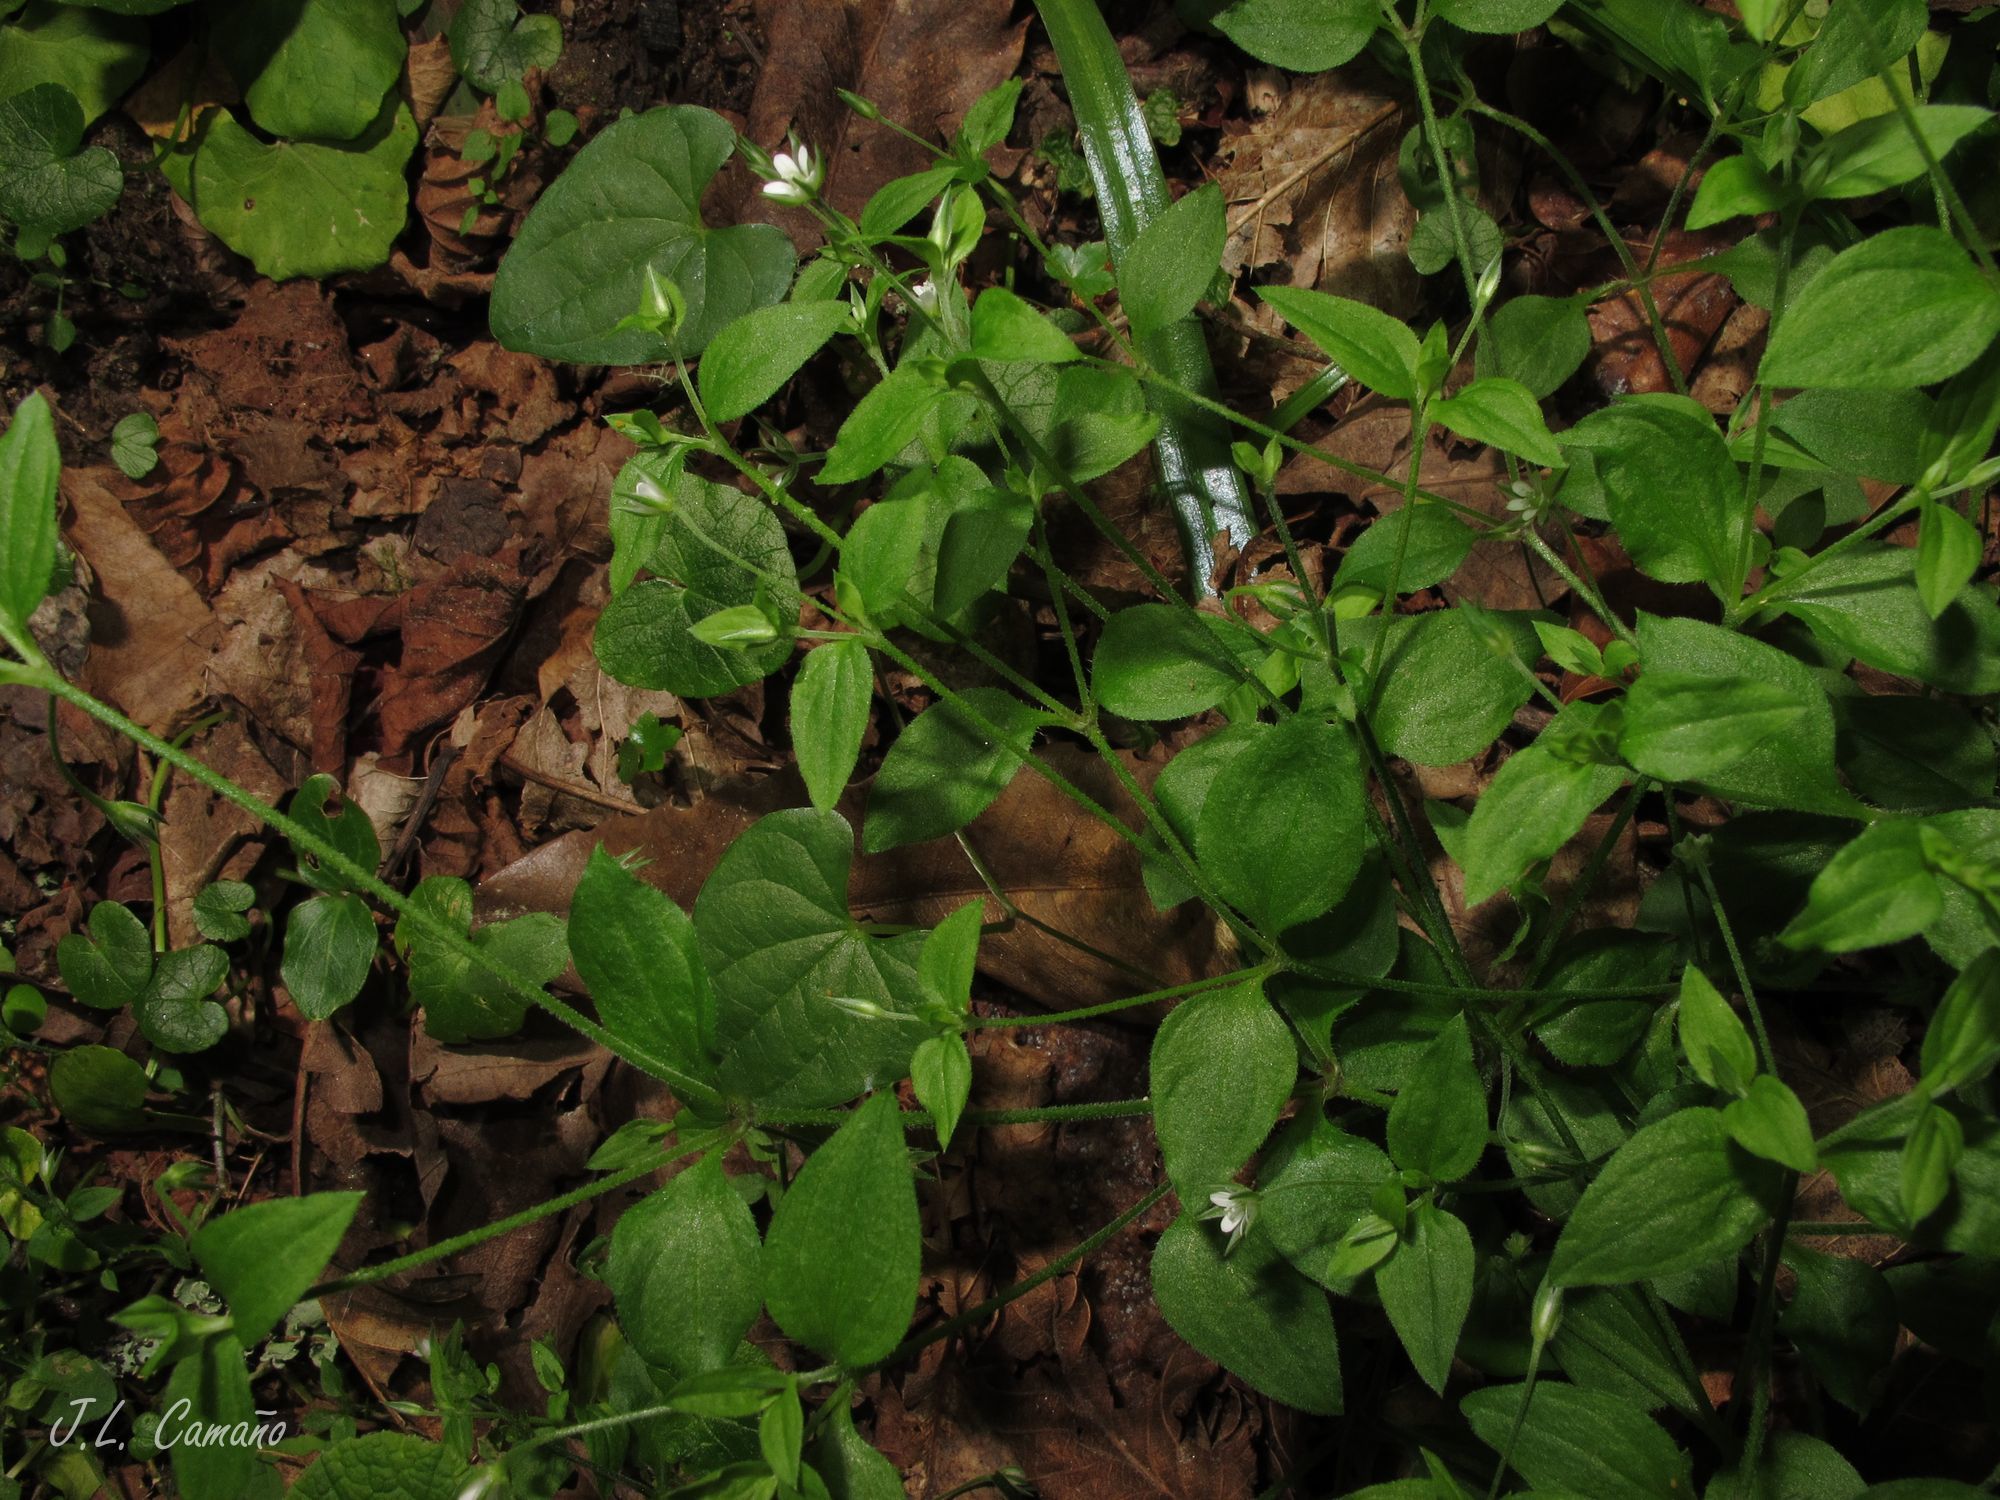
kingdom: Plantae
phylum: Tracheophyta
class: Magnoliopsida
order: Caryophyllales
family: Caryophyllaceae
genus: Moehringia
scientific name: Moehringia trinervia
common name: Three-nerved sandwort
